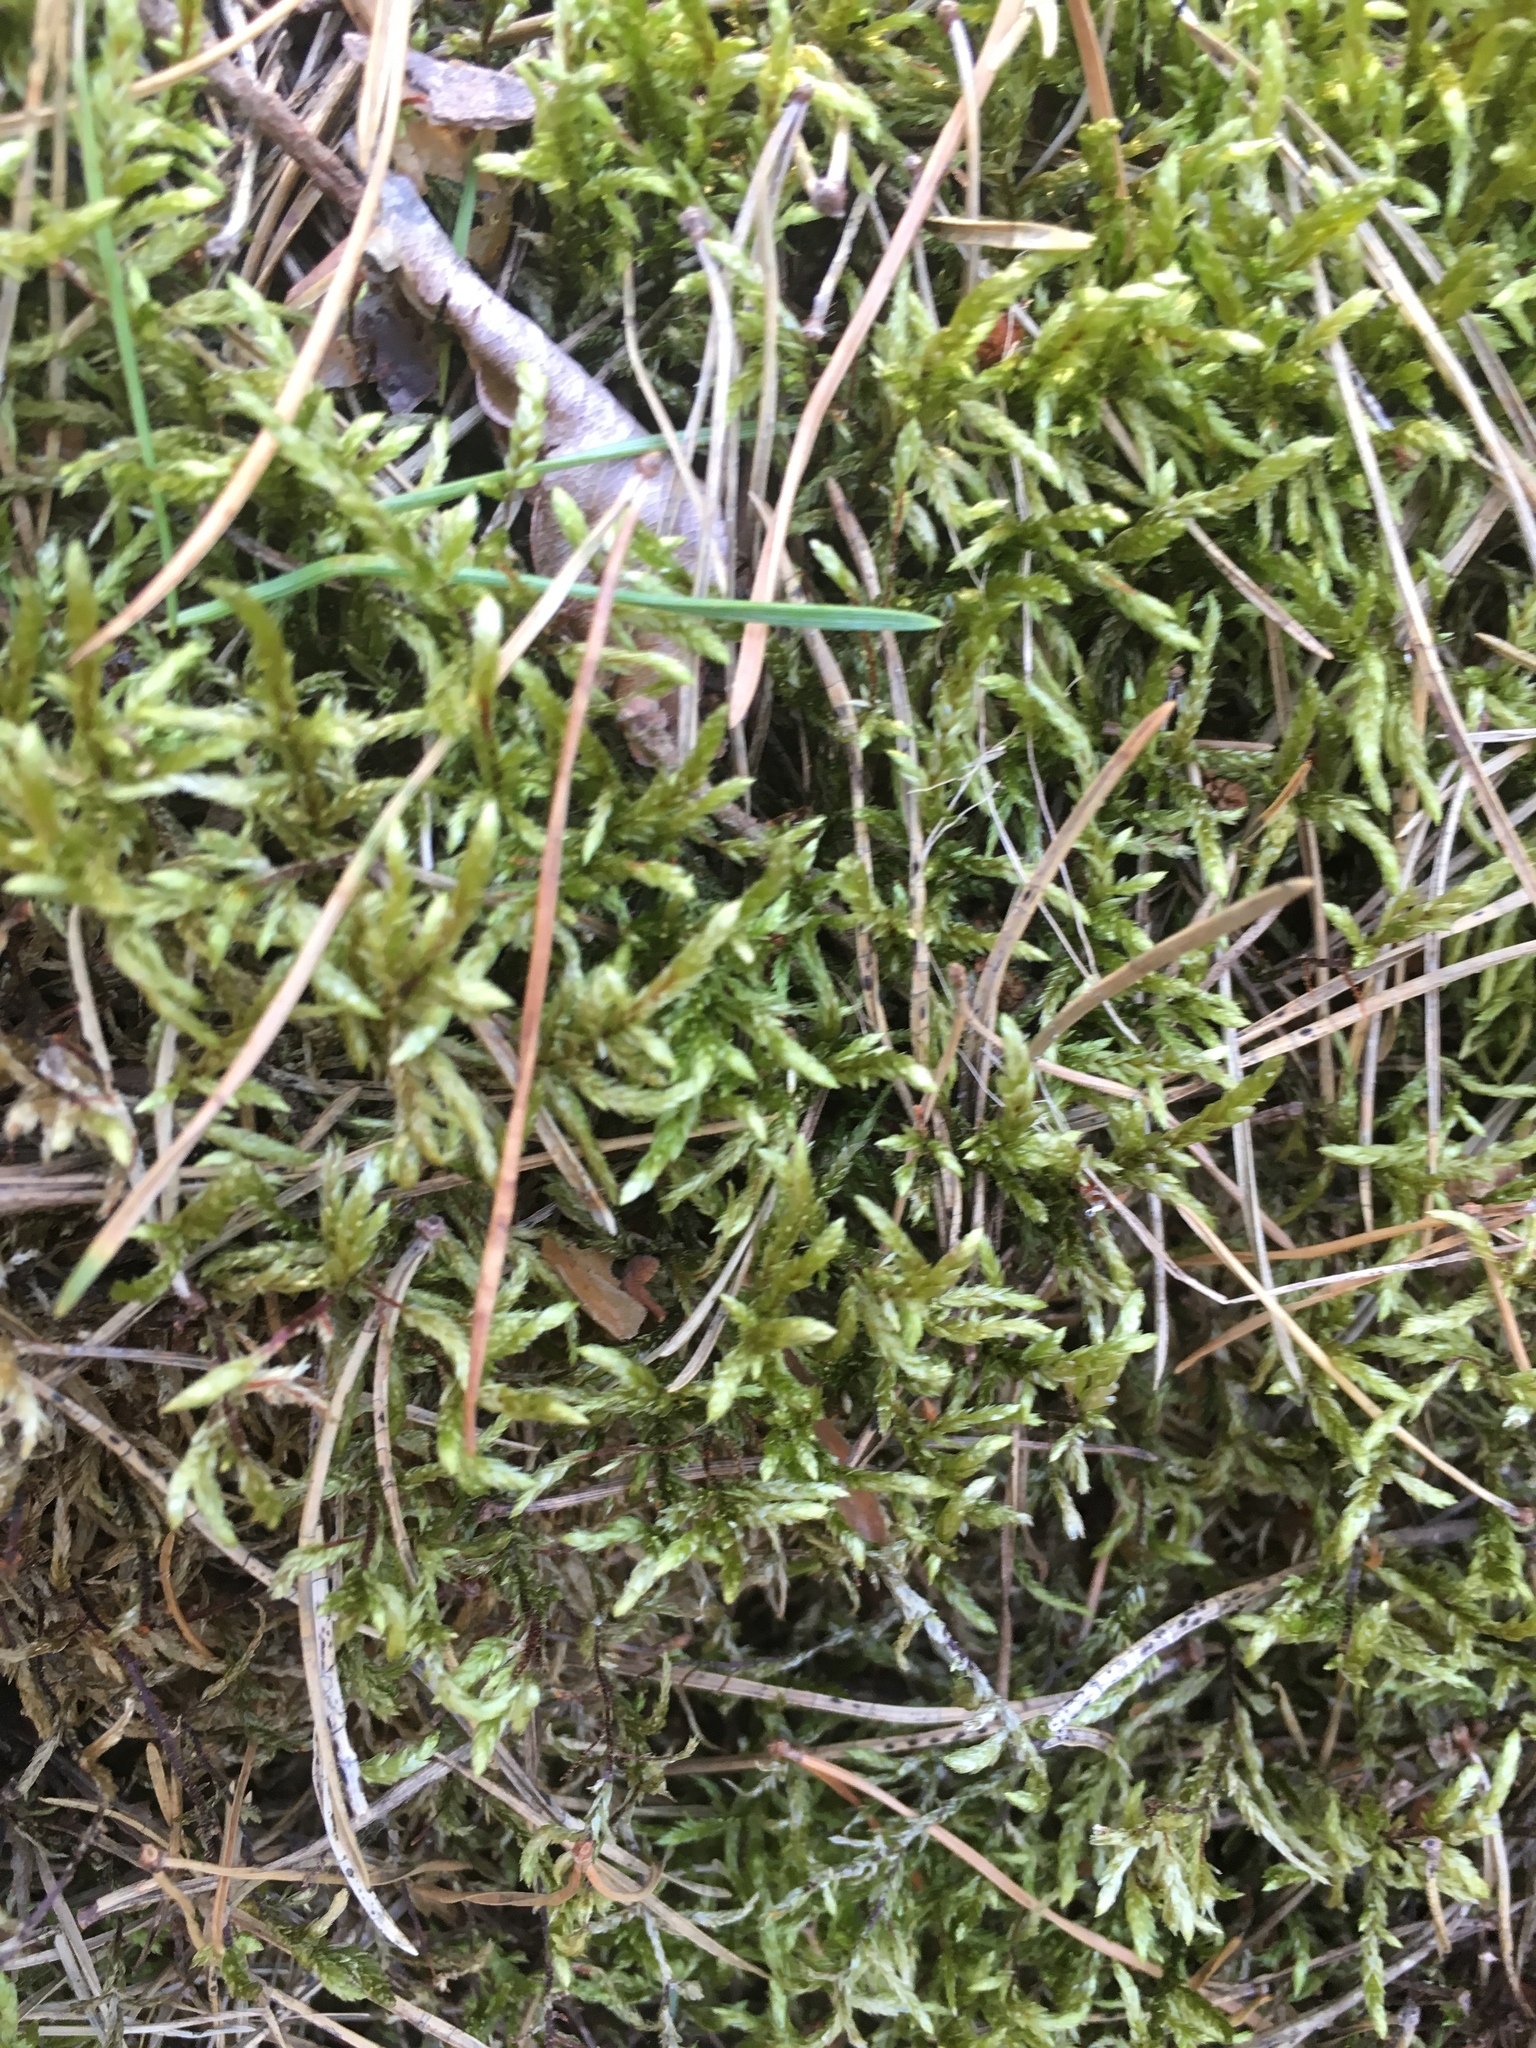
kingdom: Plantae
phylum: Bryophyta
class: Bryopsida
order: Hypnales
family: Hylocomiaceae
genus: Pleurozium
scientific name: Pleurozium schreberi
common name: Red-stemmed feather moss
